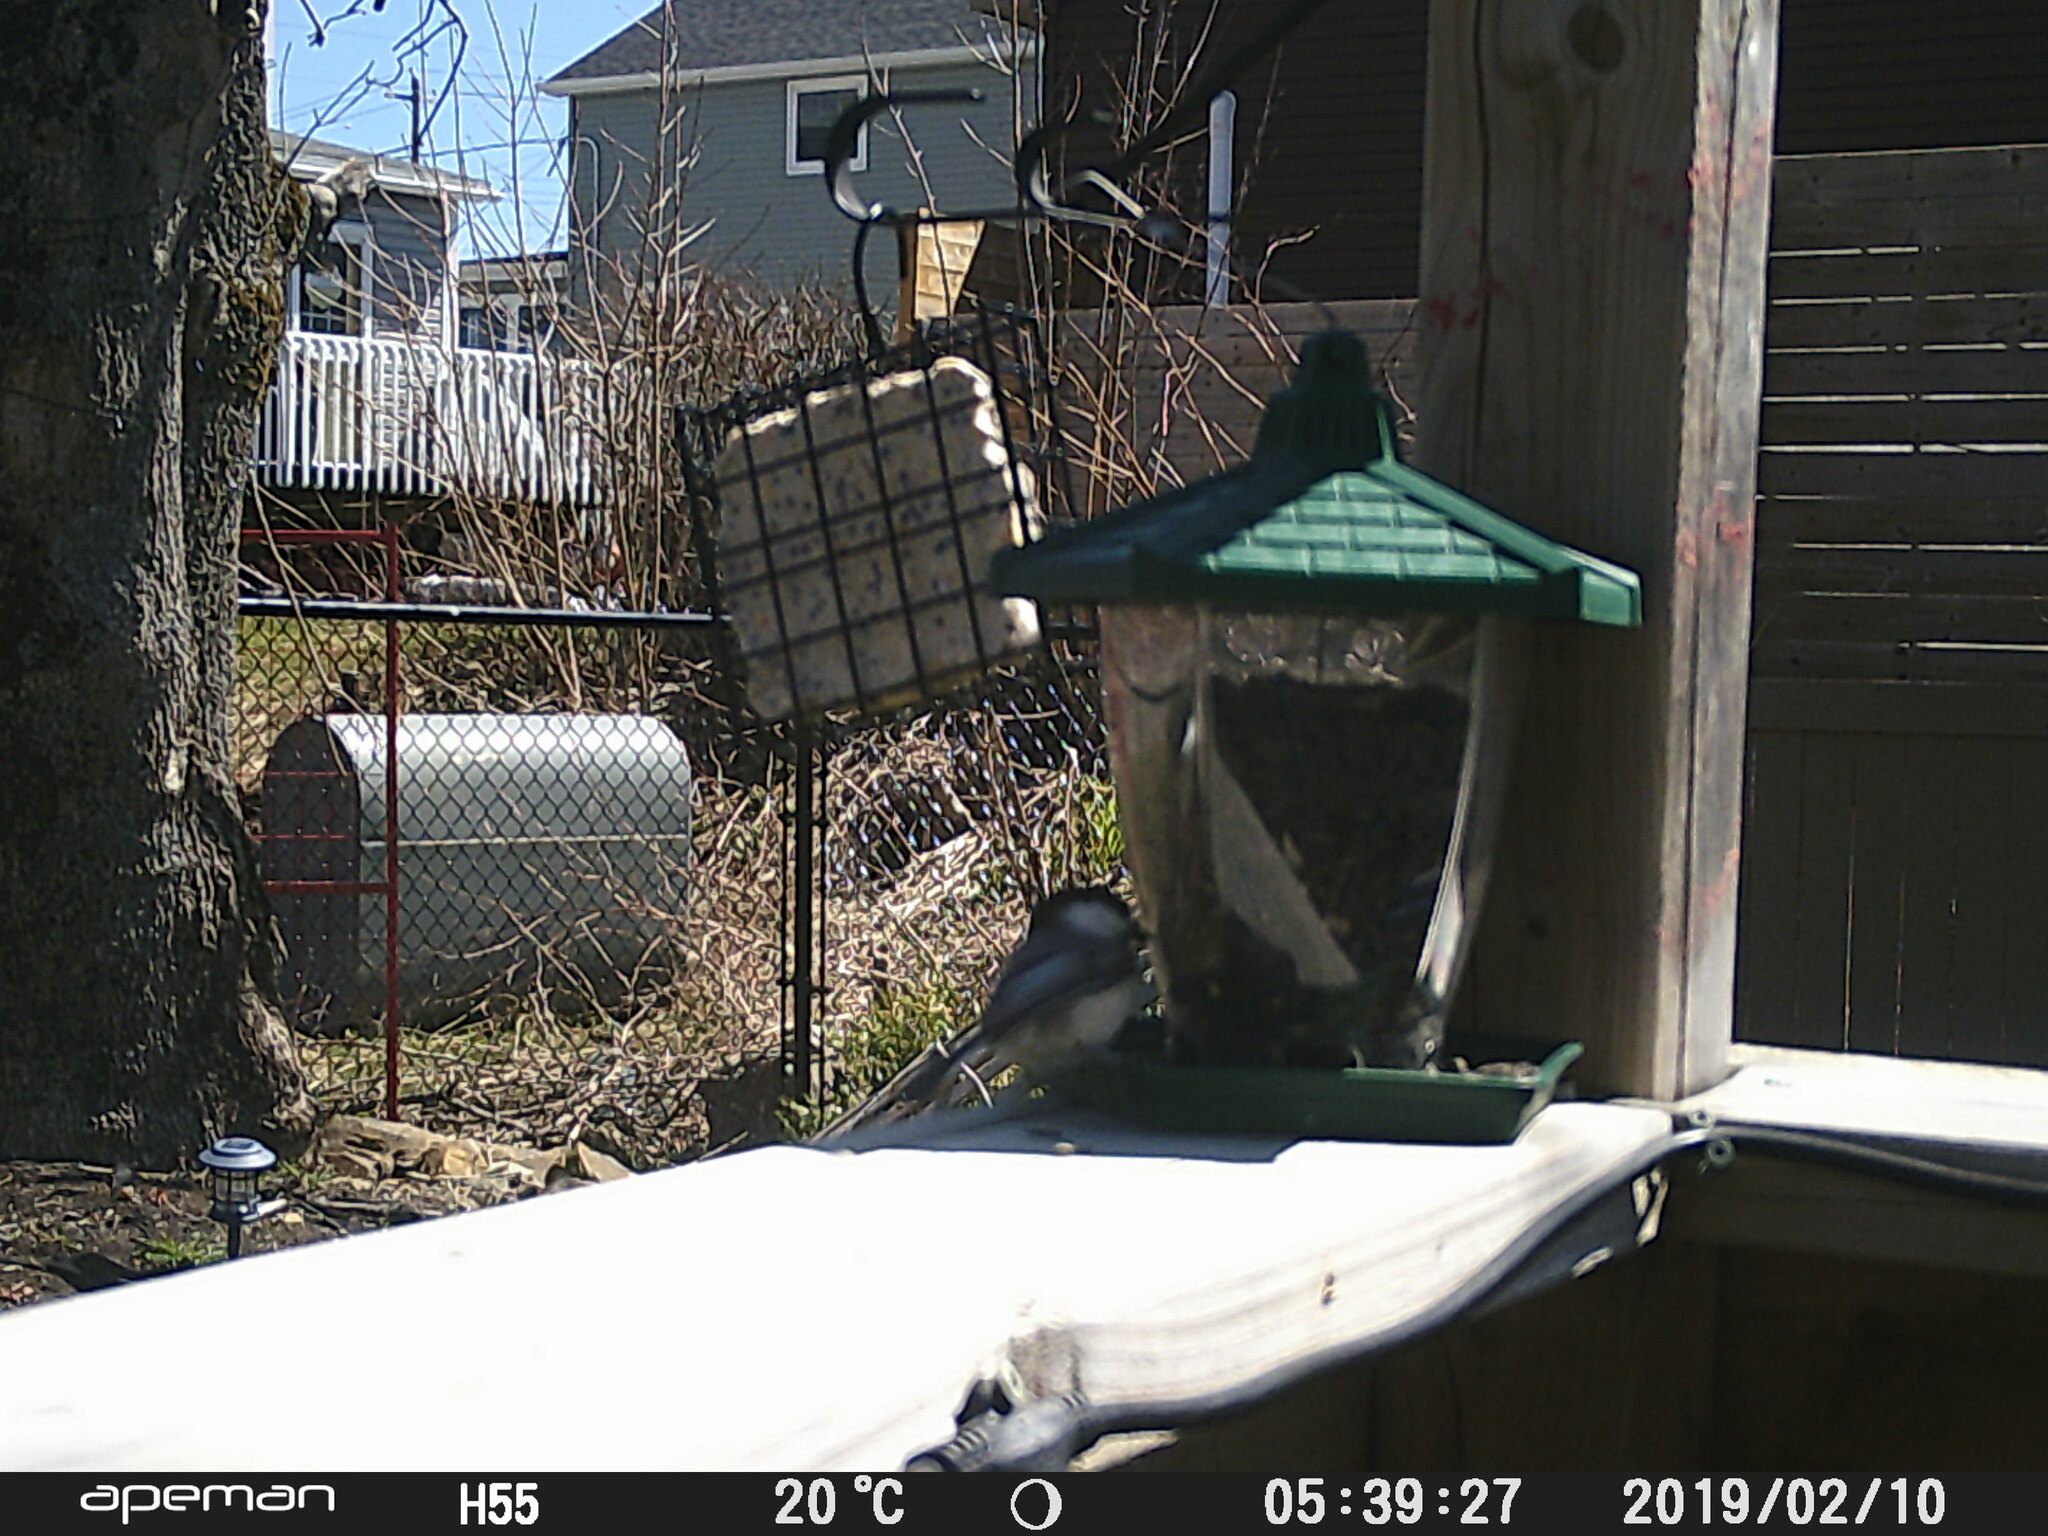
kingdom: Animalia
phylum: Chordata
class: Aves
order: Passeriformes
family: Paridae
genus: Poecile
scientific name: Poecile atricapillus
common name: Black-capped chickadee
